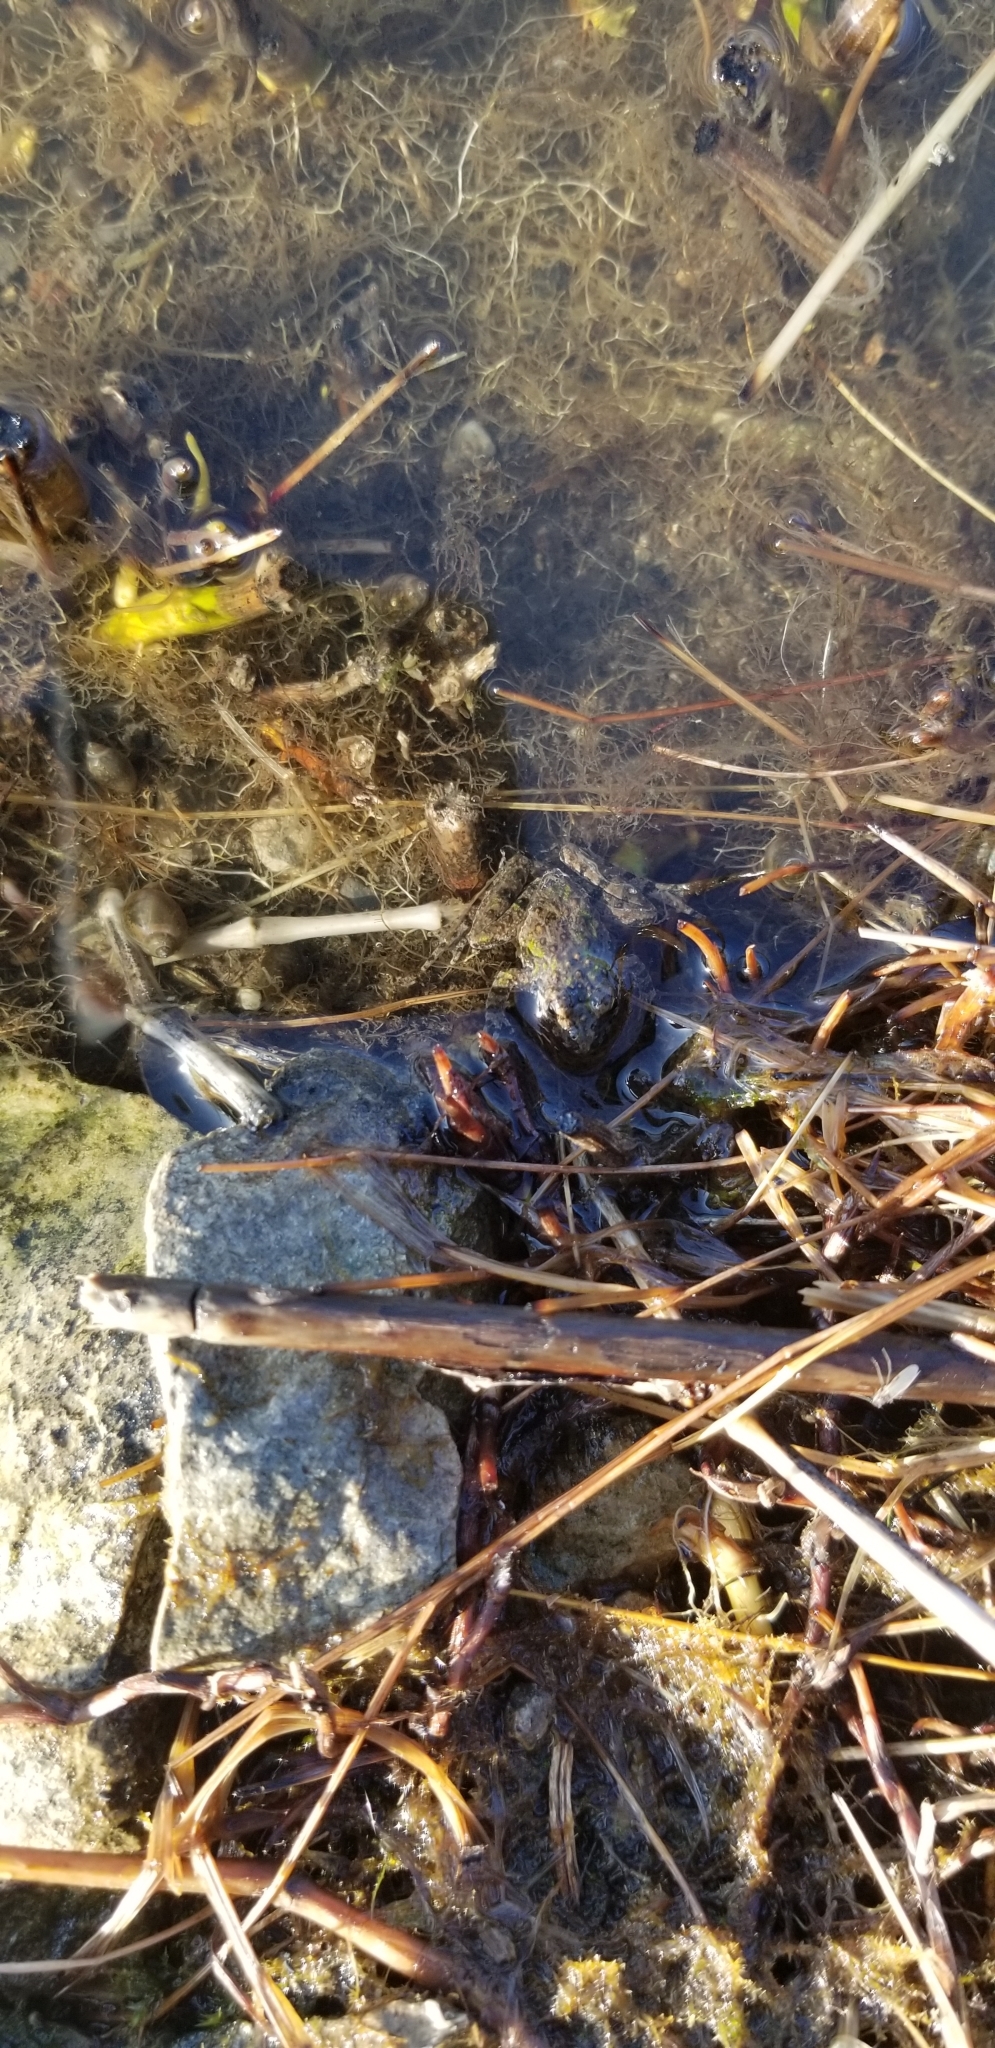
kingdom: Animalia
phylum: Chordata
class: Amphibia
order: Anura
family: Hylidae
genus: Acris
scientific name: Acris blanchardi
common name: Blanchard's cricket frog
